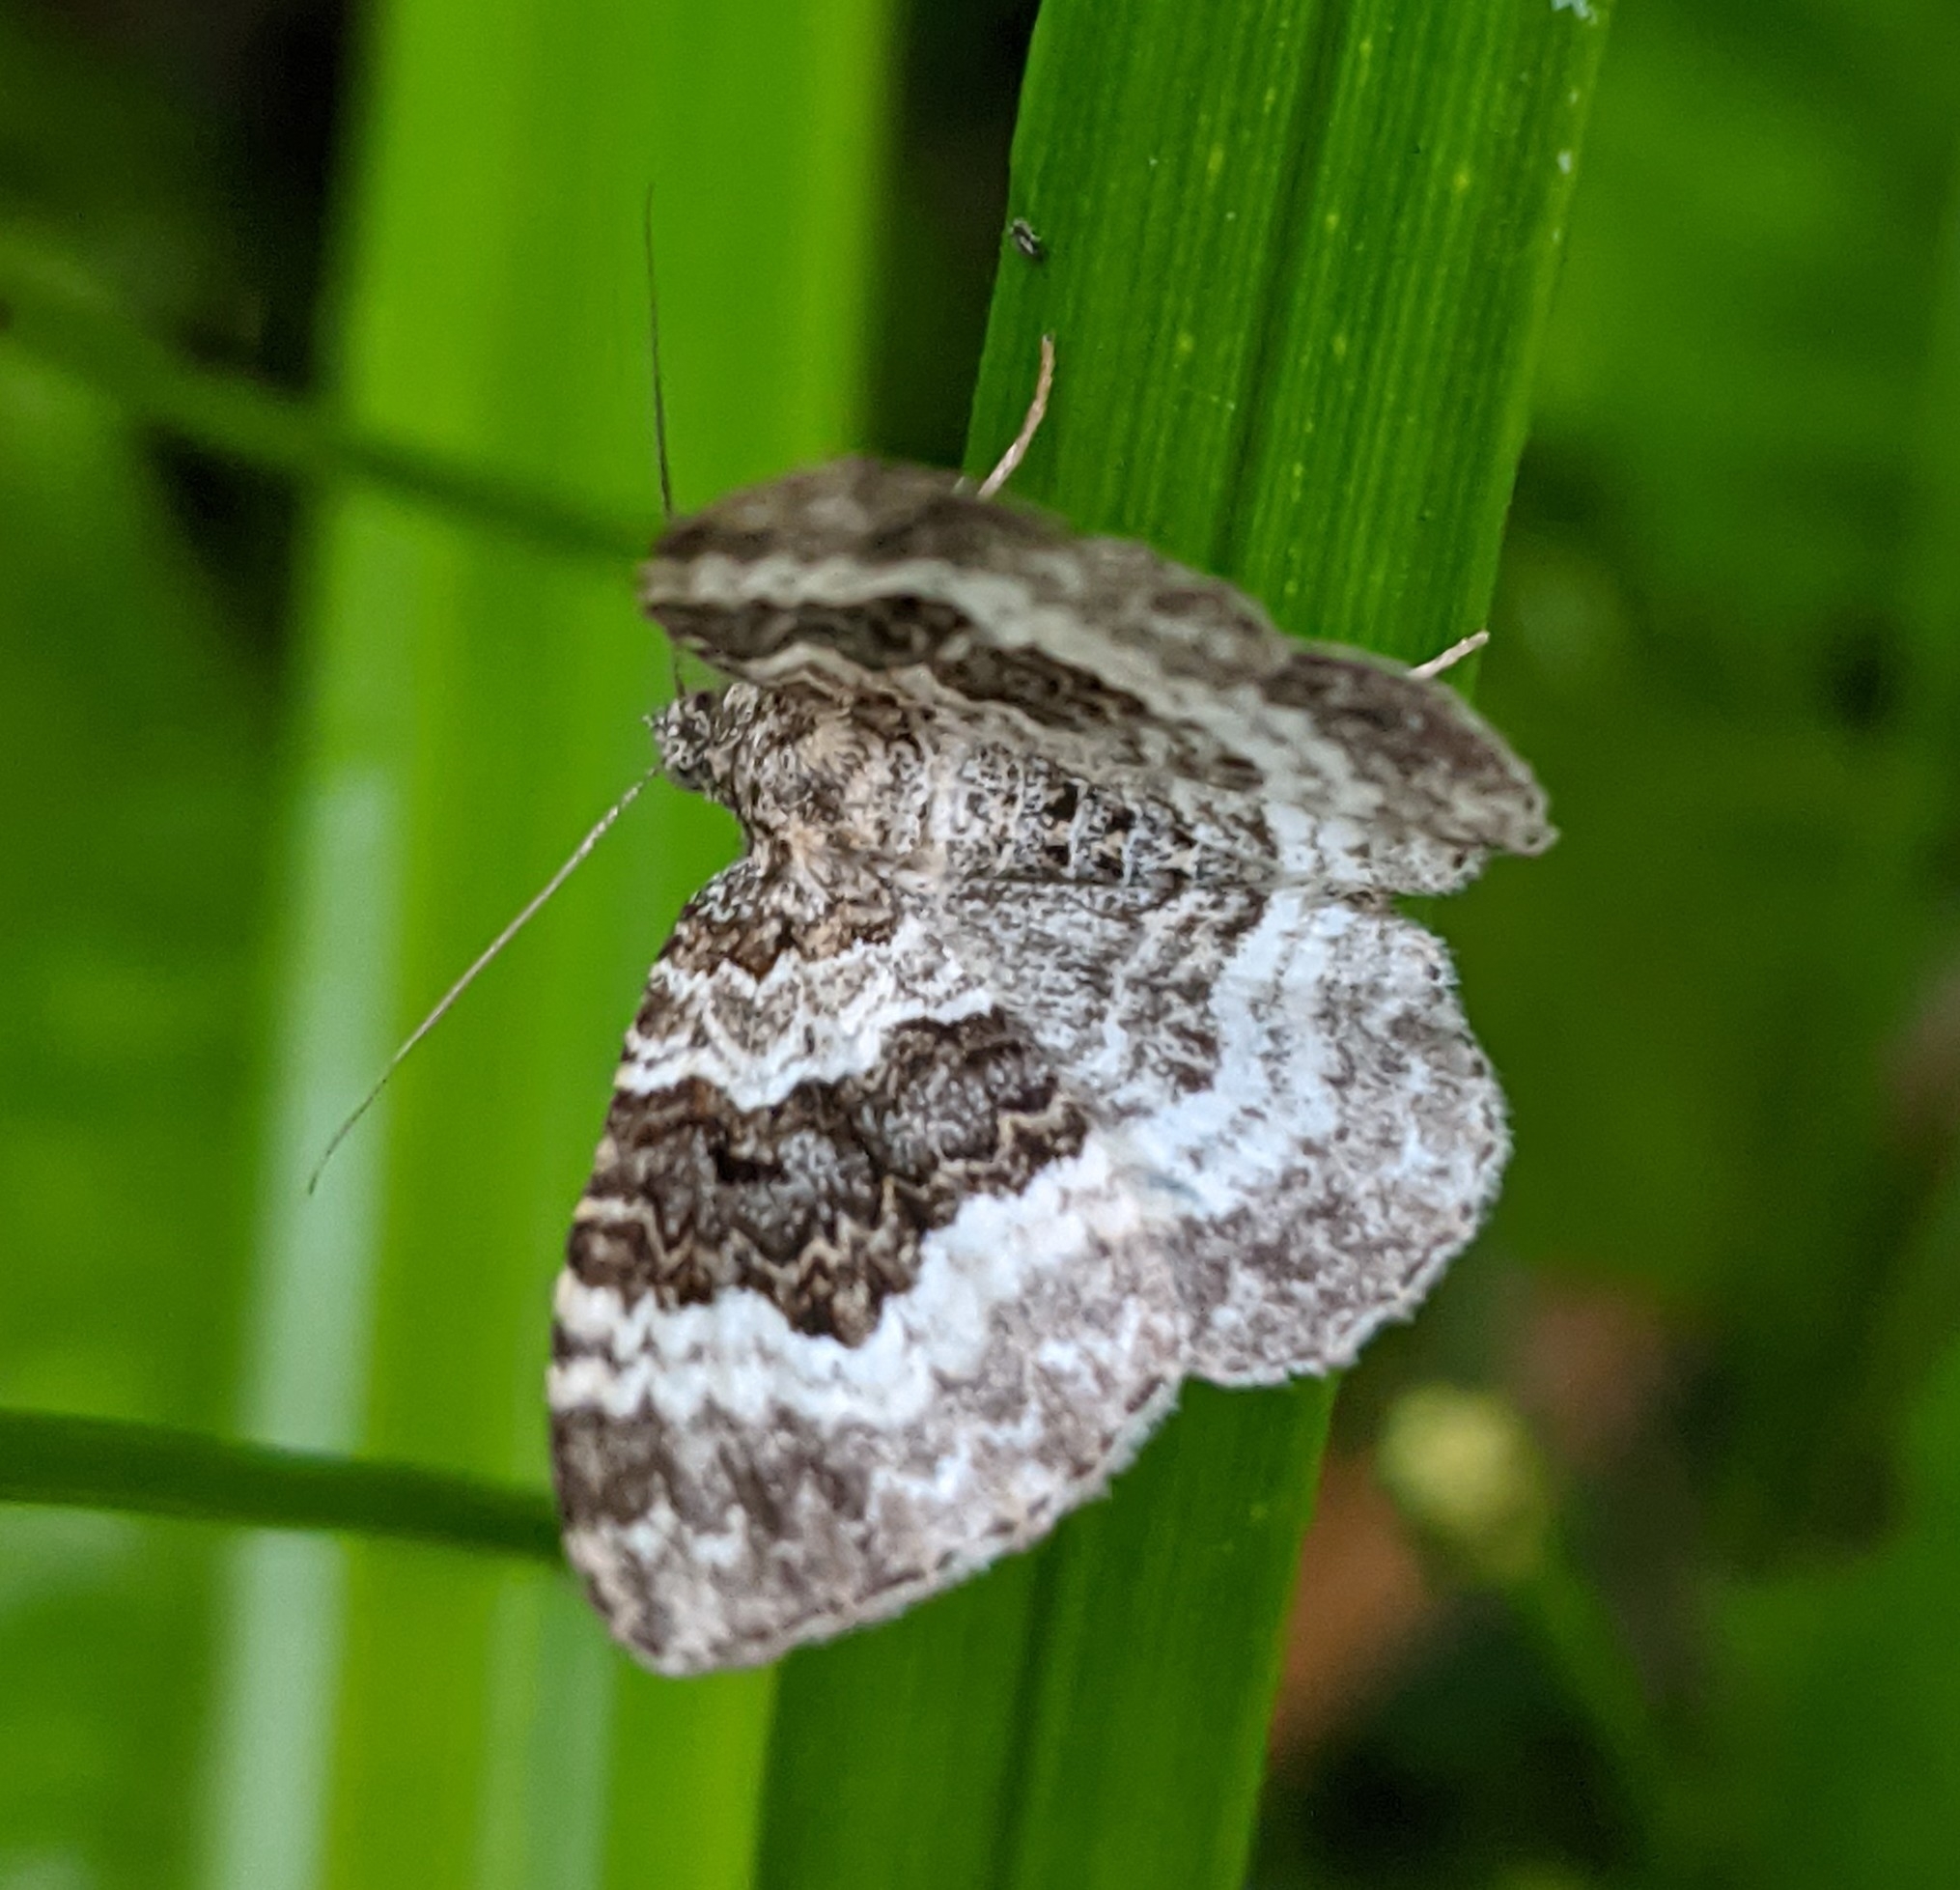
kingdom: Animalia
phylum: Arthropoda
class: Insecta
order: Lepidoptera
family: Geometridae
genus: Epirrhoe
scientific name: Epirrhoe alternata
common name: Common carpet
